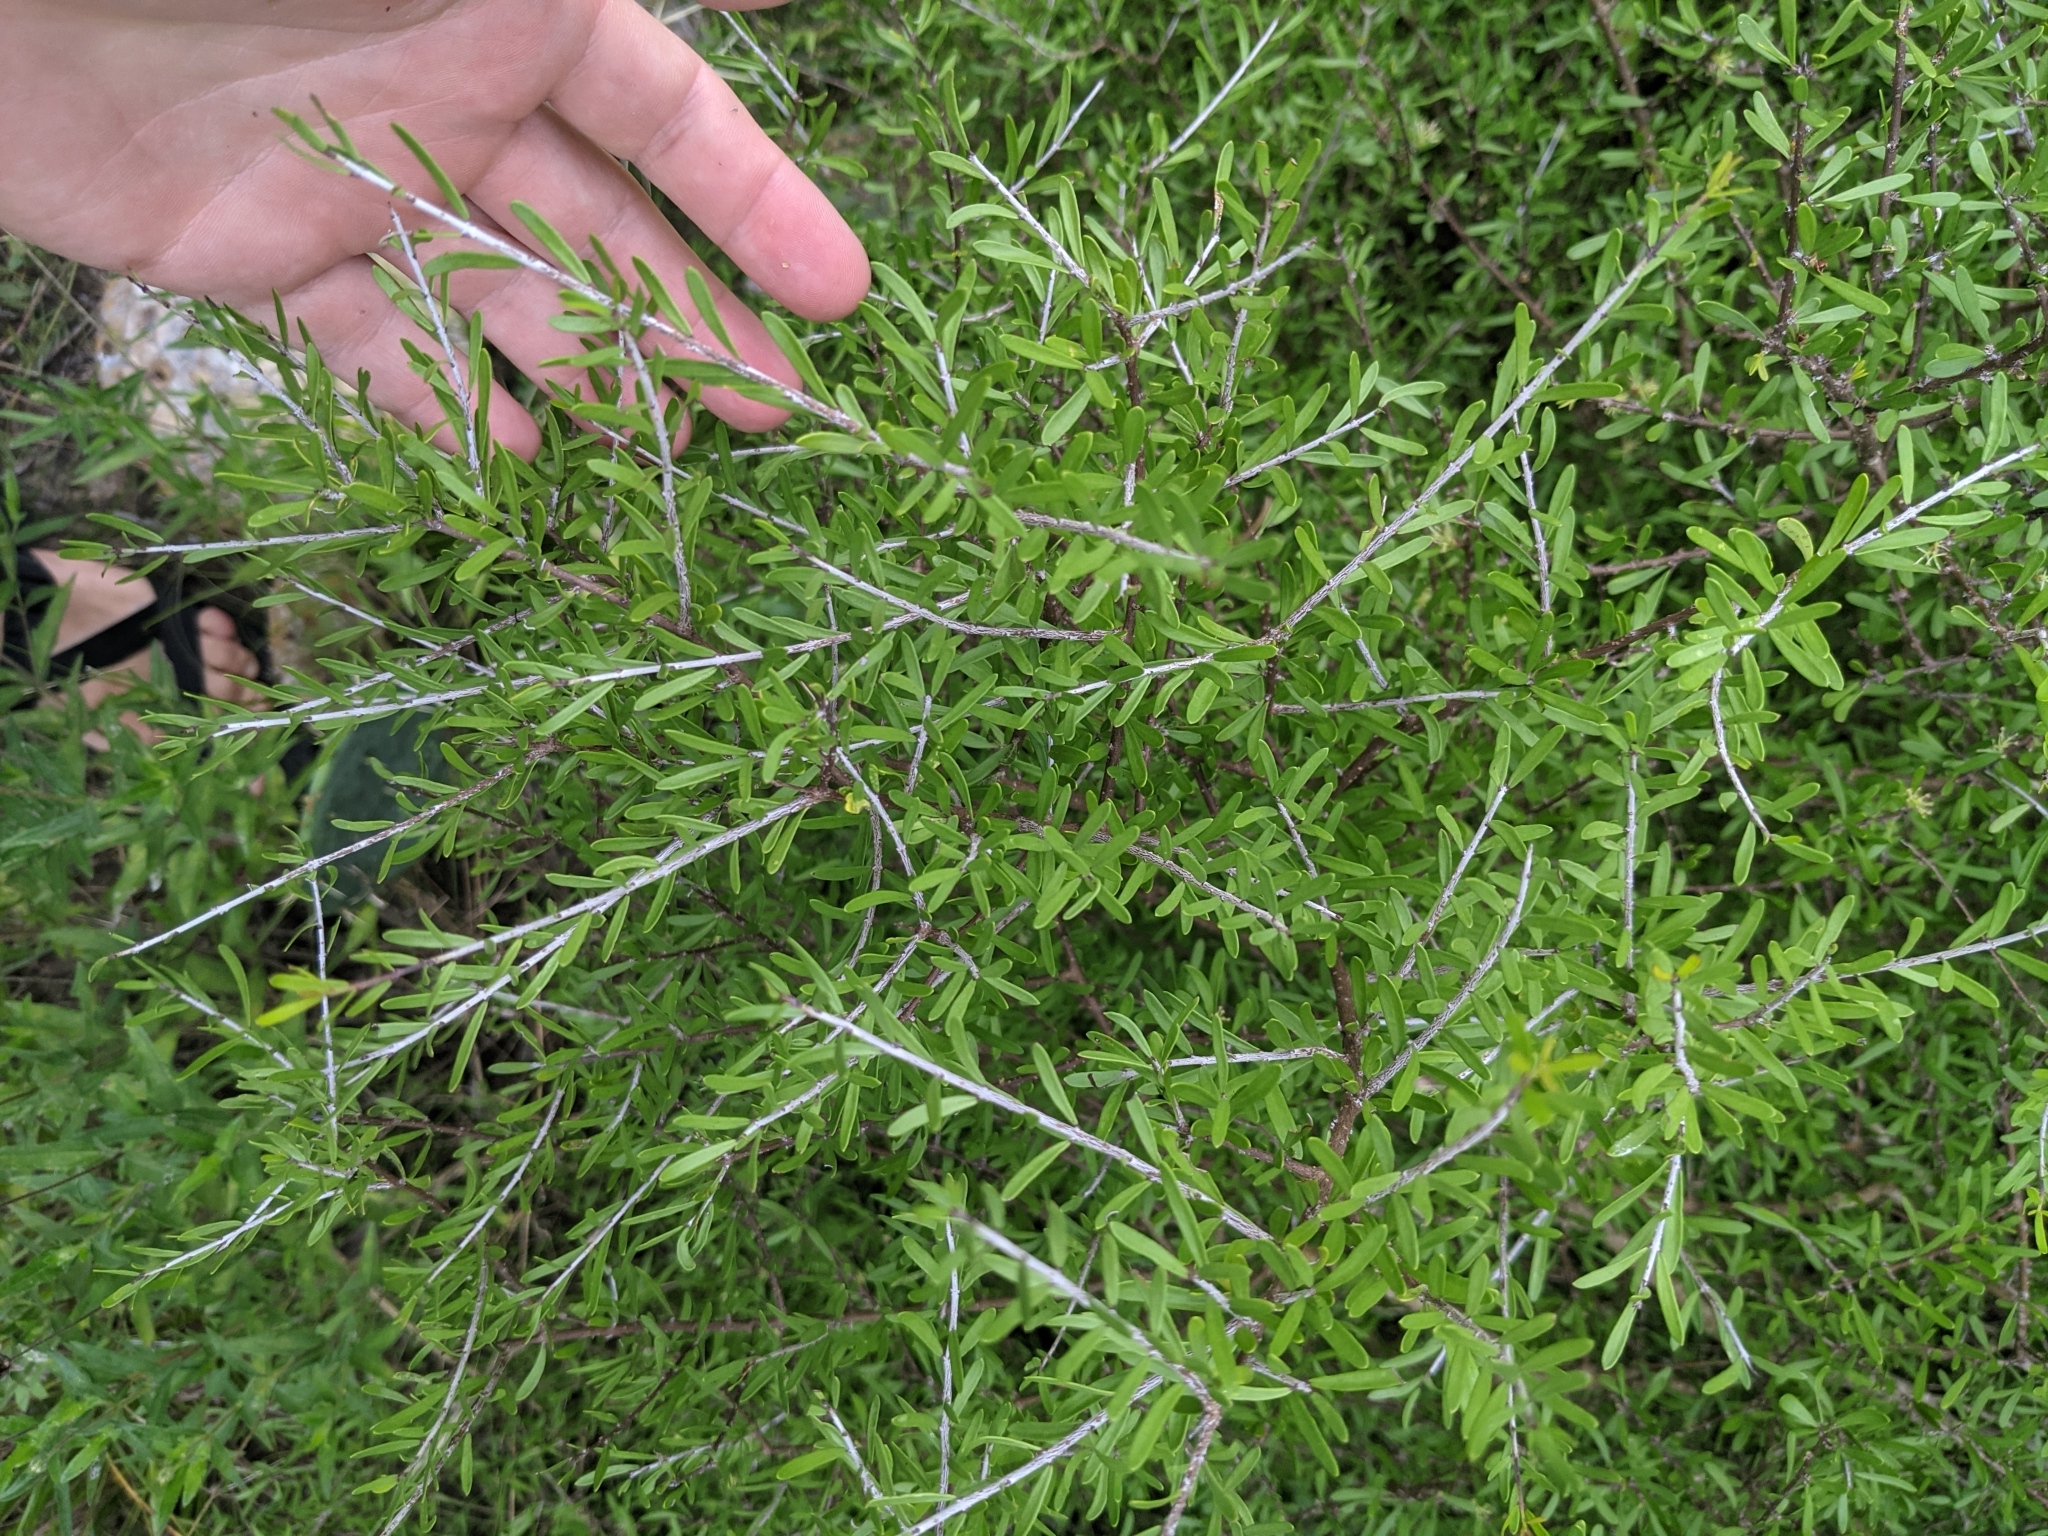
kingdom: Plantae
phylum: Tracheophyta
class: Magnoliopsida
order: Lamiales
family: Oleaceae
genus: Forestiera
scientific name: Forestiera angustifolia
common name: Elbowbush
